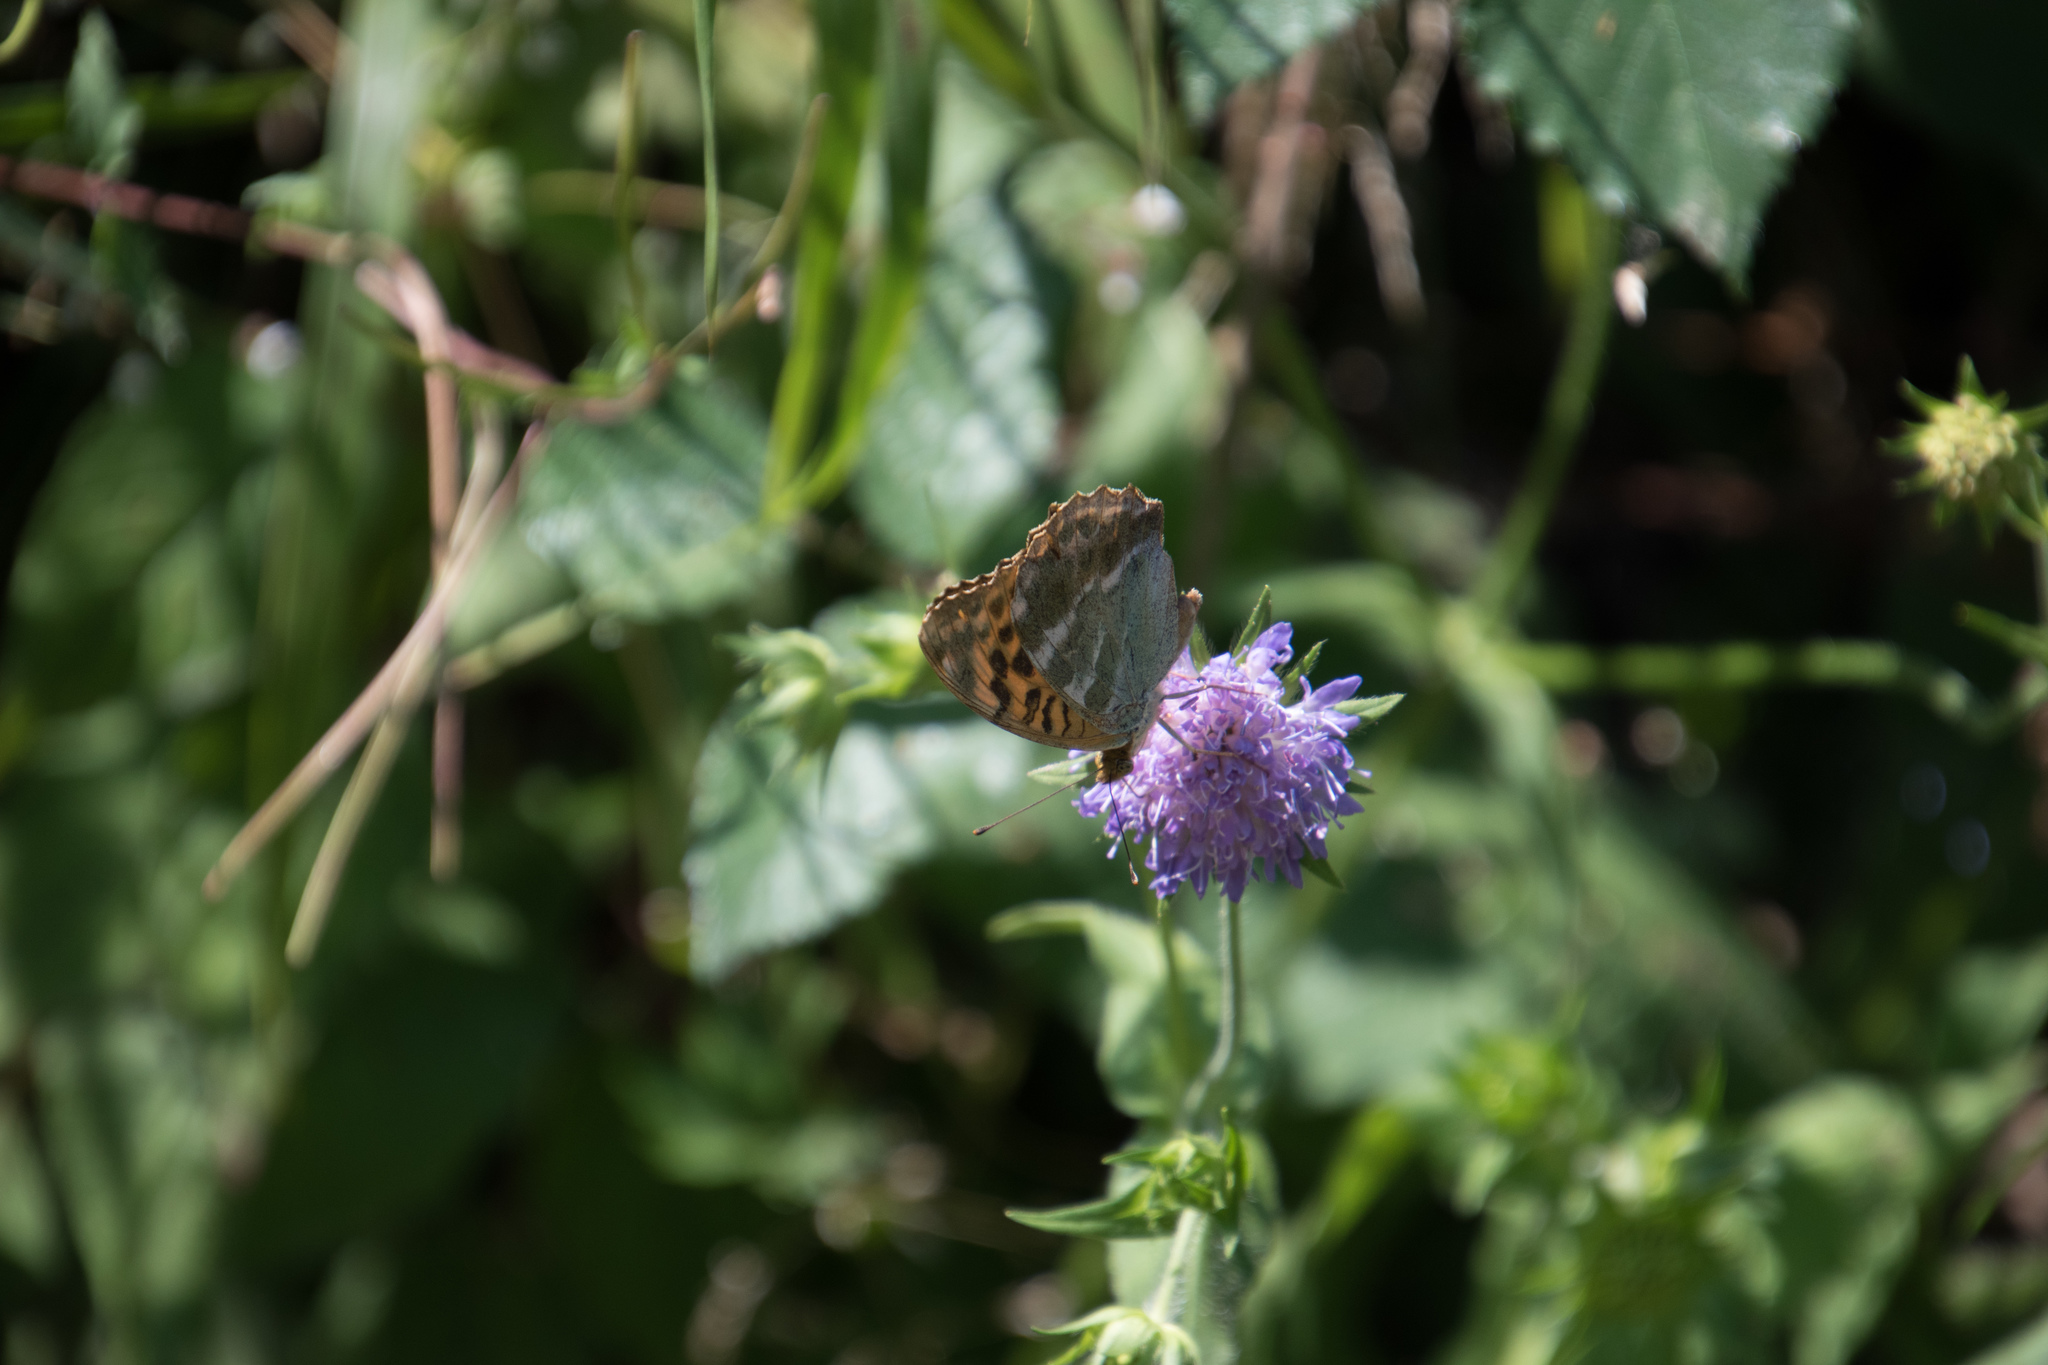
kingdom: Animalia
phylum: Arthropoda
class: Insecta
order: Lepidoptera
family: Nymphalidae
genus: Argynnis
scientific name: Argynnis paphia
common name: Silver-washed fritillary
